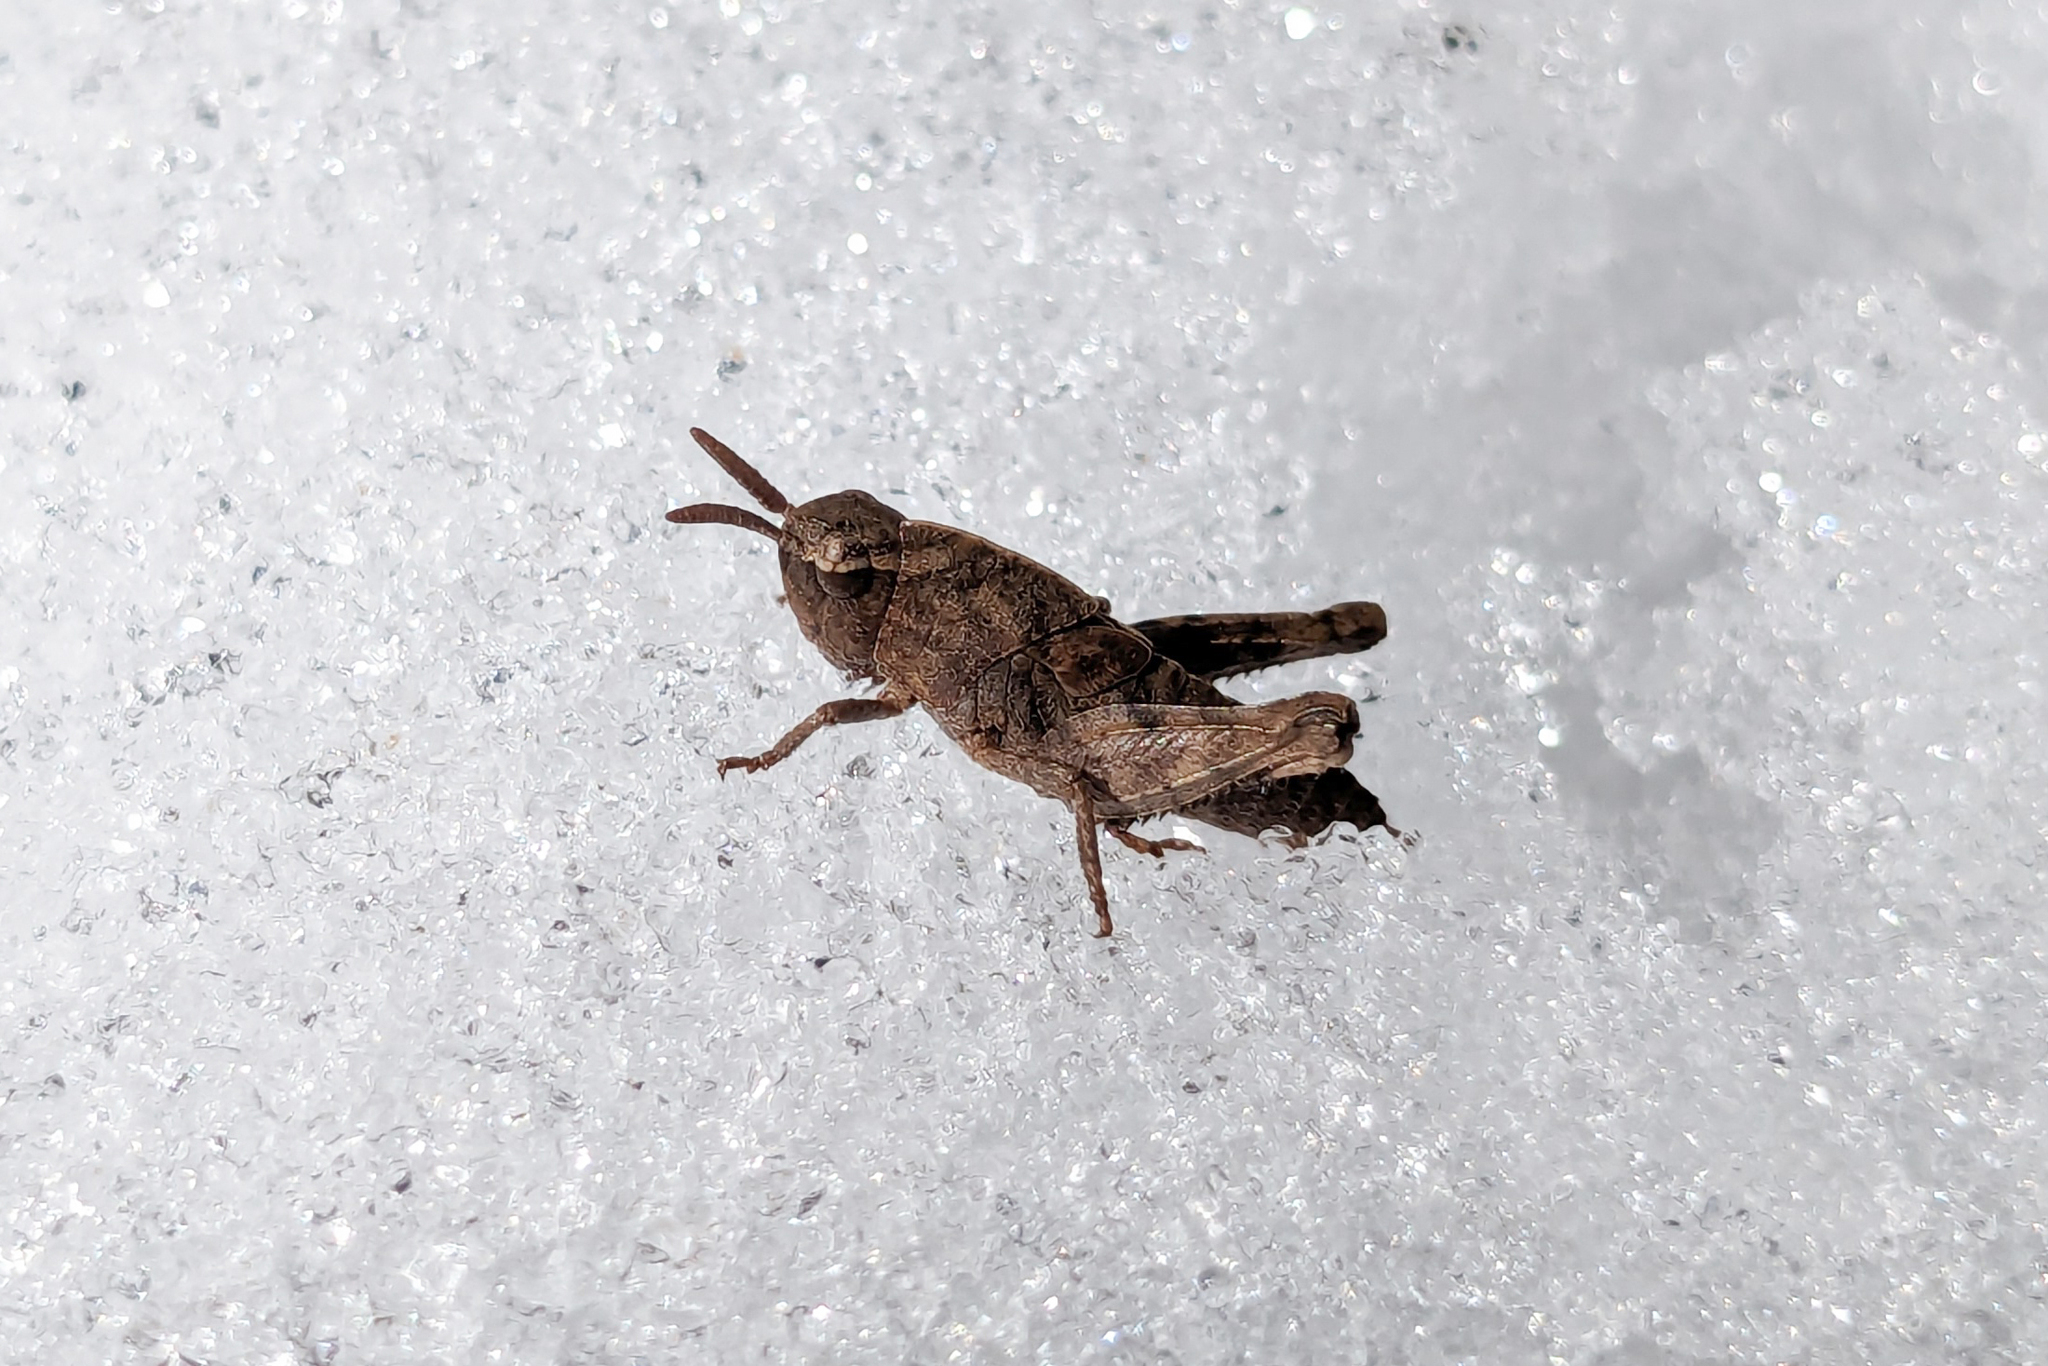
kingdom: Animalia
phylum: Arthropoda
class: Insecta
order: Orthoptera
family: Acrididae
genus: Chortophaga
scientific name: Chortophaga viridifasciata
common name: Green-striped grasshopper
